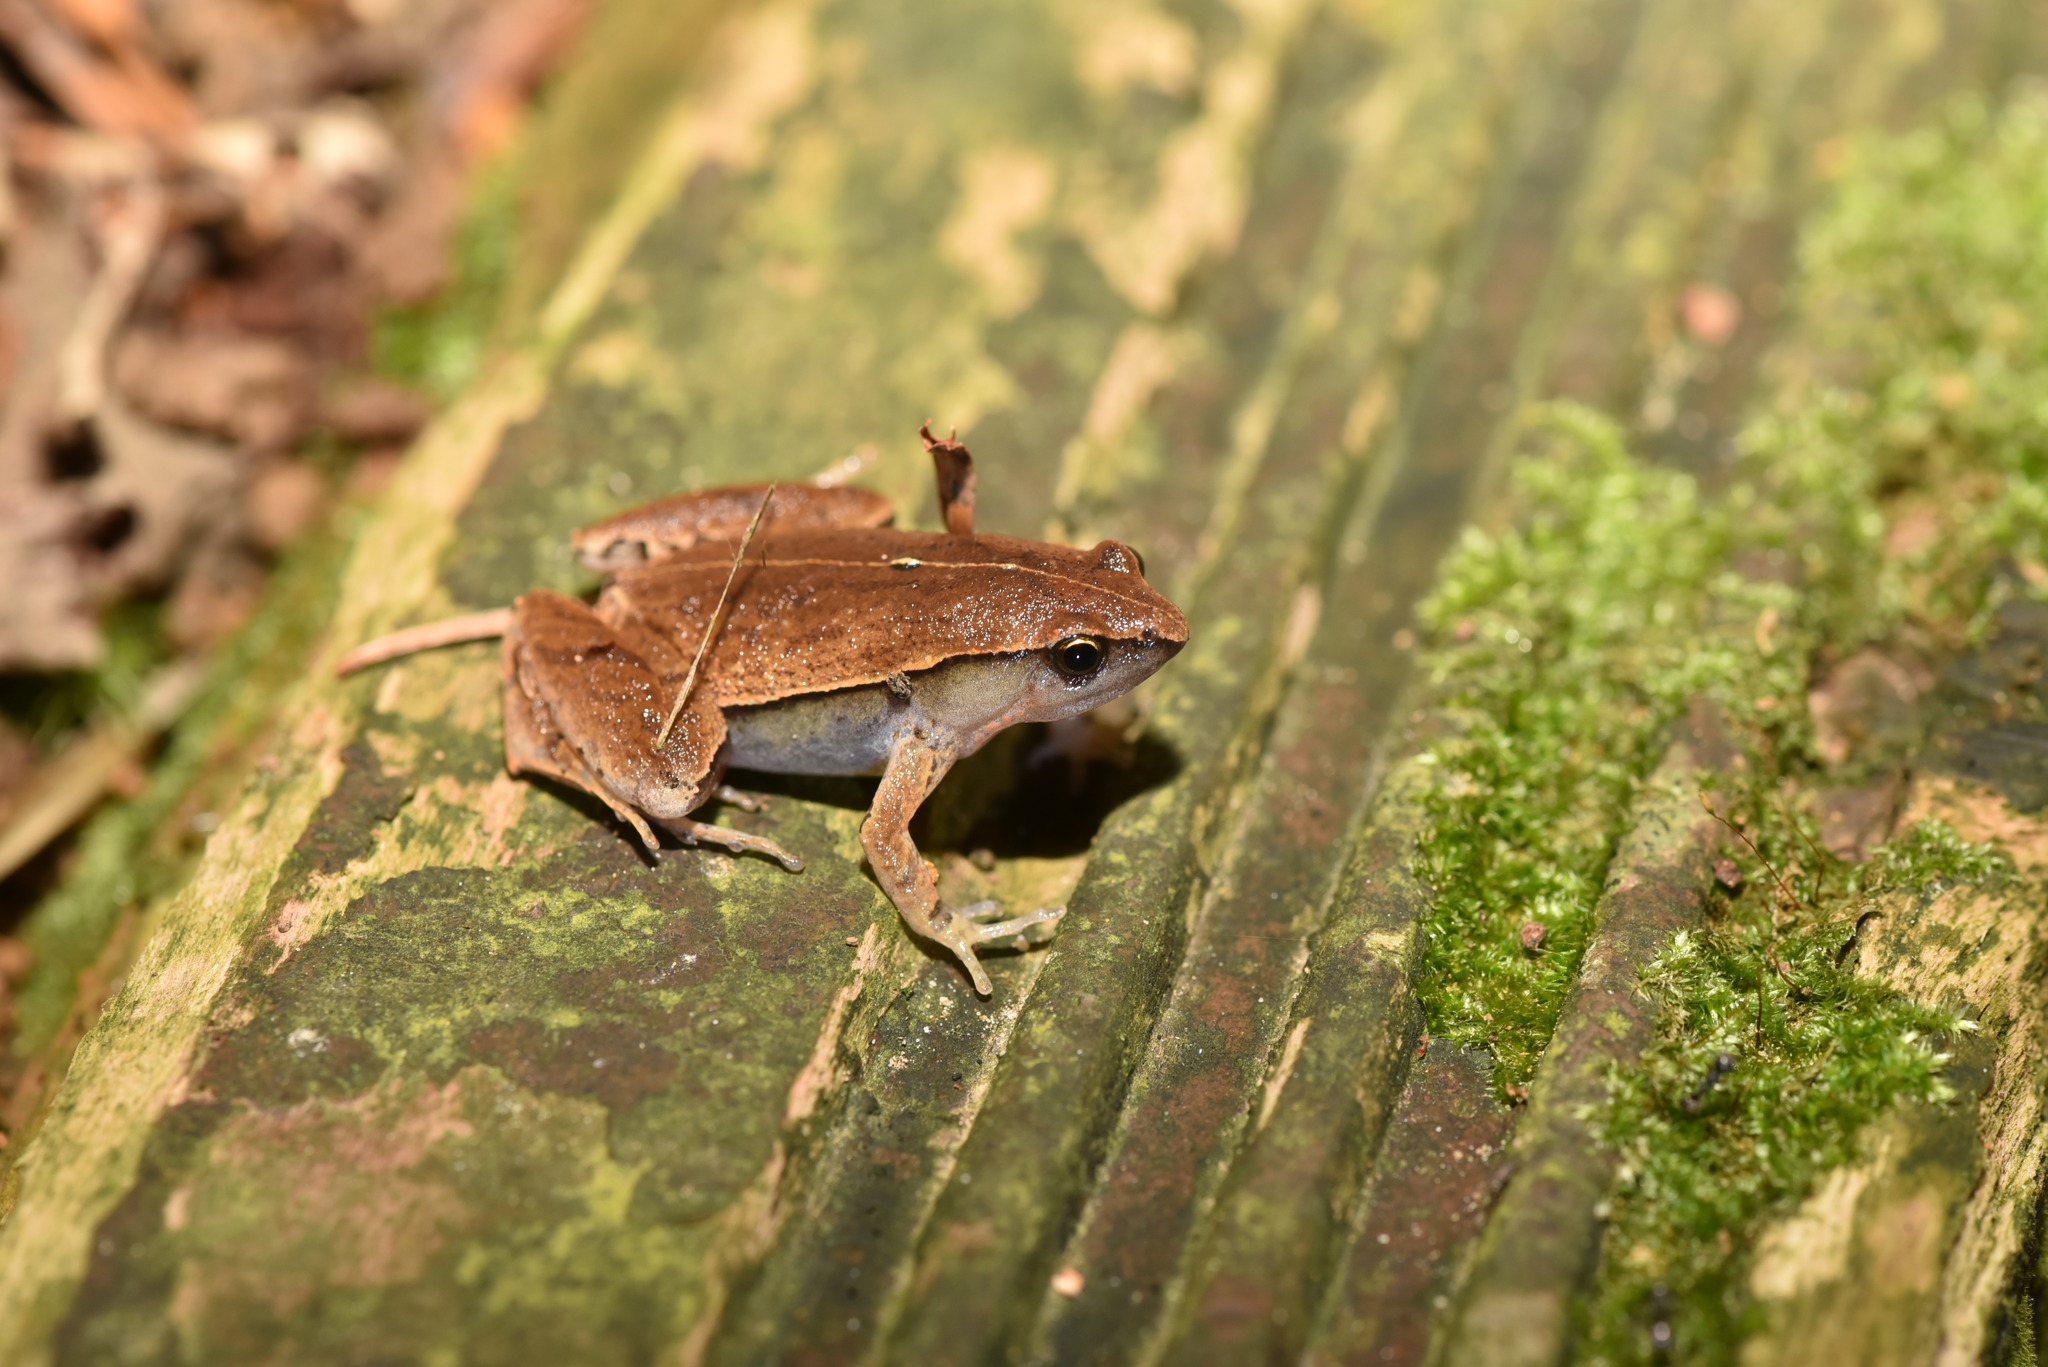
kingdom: Animalia
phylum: Chordata
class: Amphibia
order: Anura
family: Microhylidae
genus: Microhyla
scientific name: Microhyla heymonsi
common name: Taiwan rice frog,dark sided chorus frog
